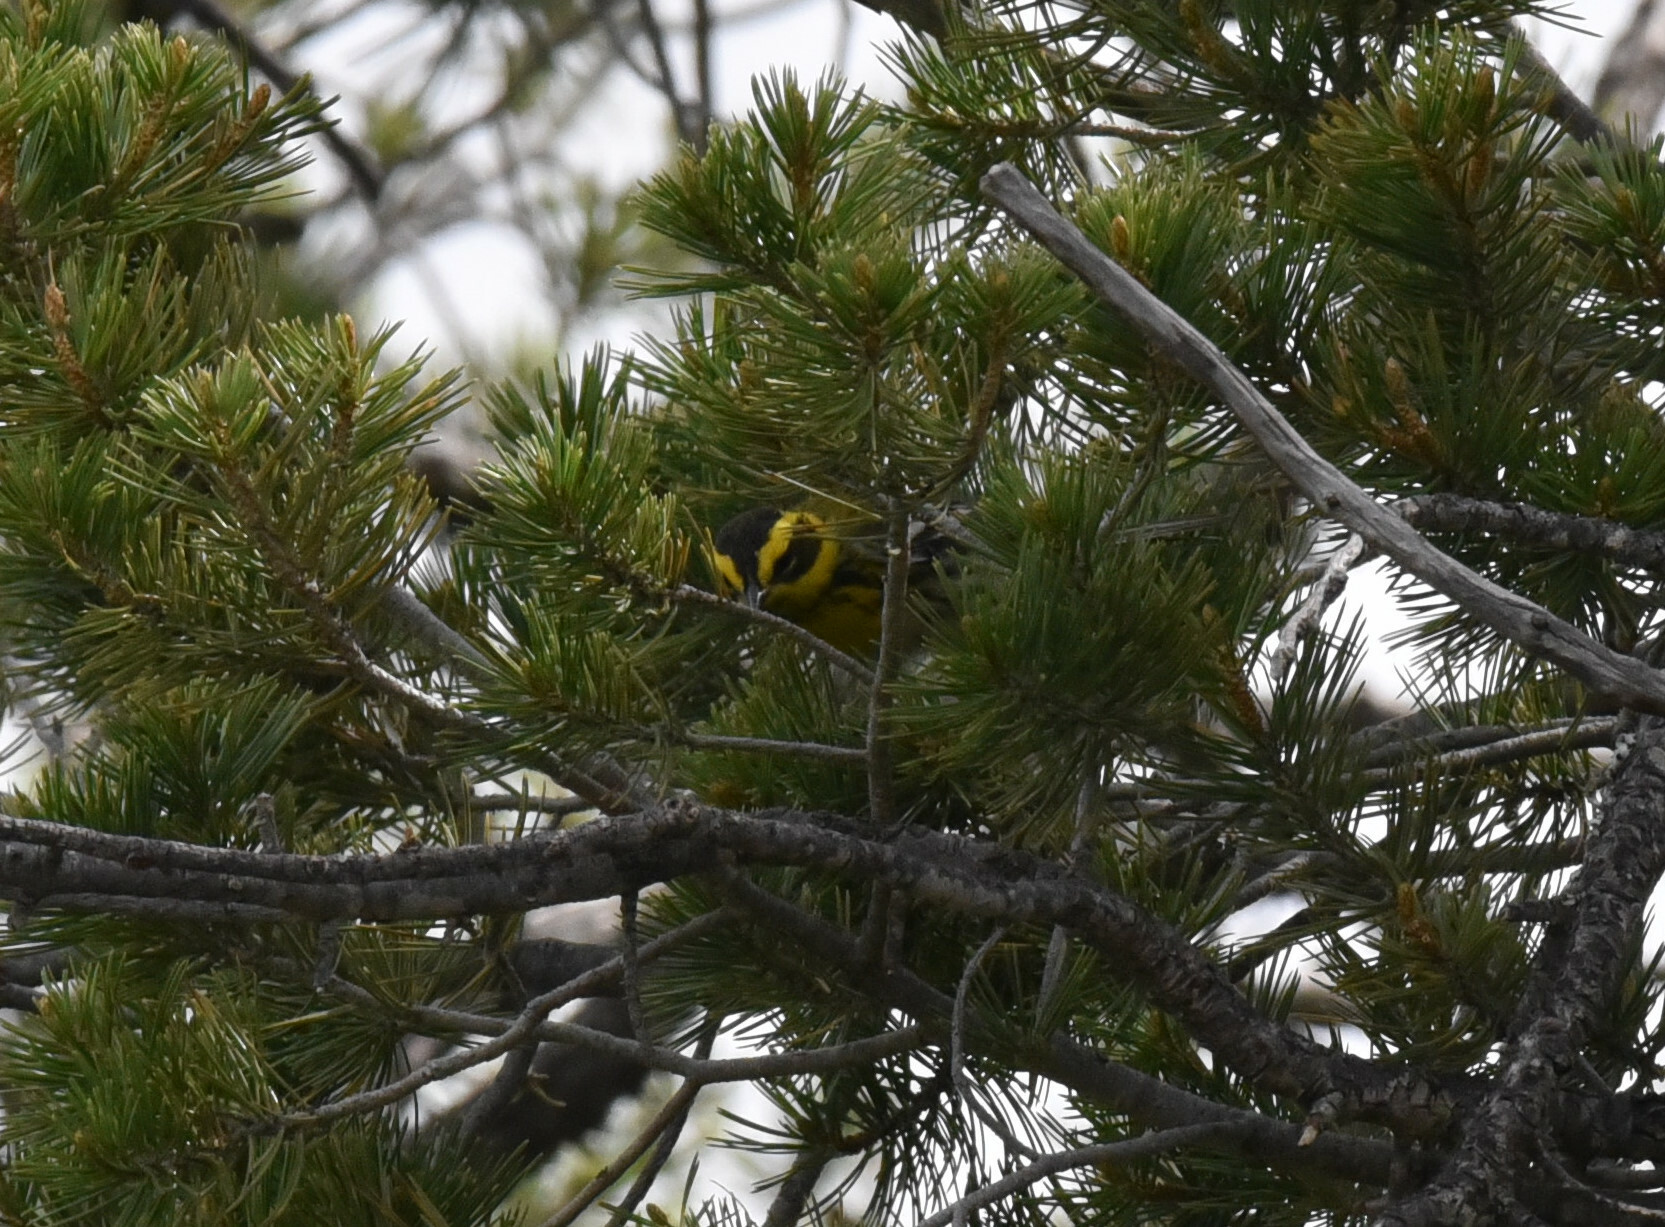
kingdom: Animalia
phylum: Chordata
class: Aves
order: Passeriformes
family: Parulidae
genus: Setophaga
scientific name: Setophaga townsendi
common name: Townsend's warbler
